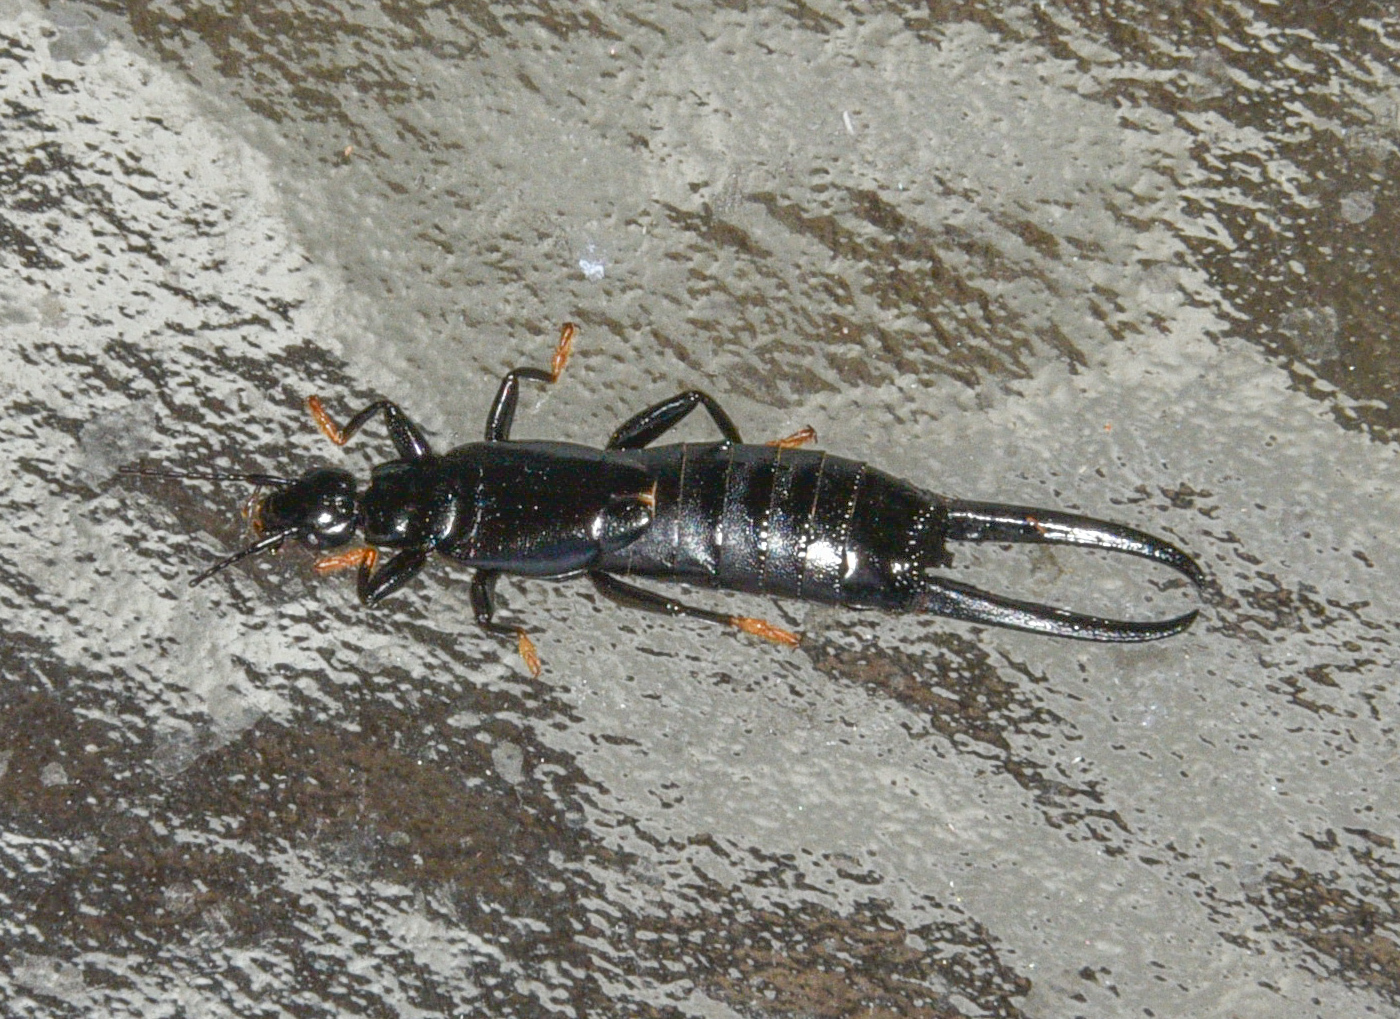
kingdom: Animalia
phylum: Arthropoda
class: Insecta
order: Dermaptera
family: Chelisochidae
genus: Chelisoches
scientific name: Chelisoches morio
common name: Black earwig
